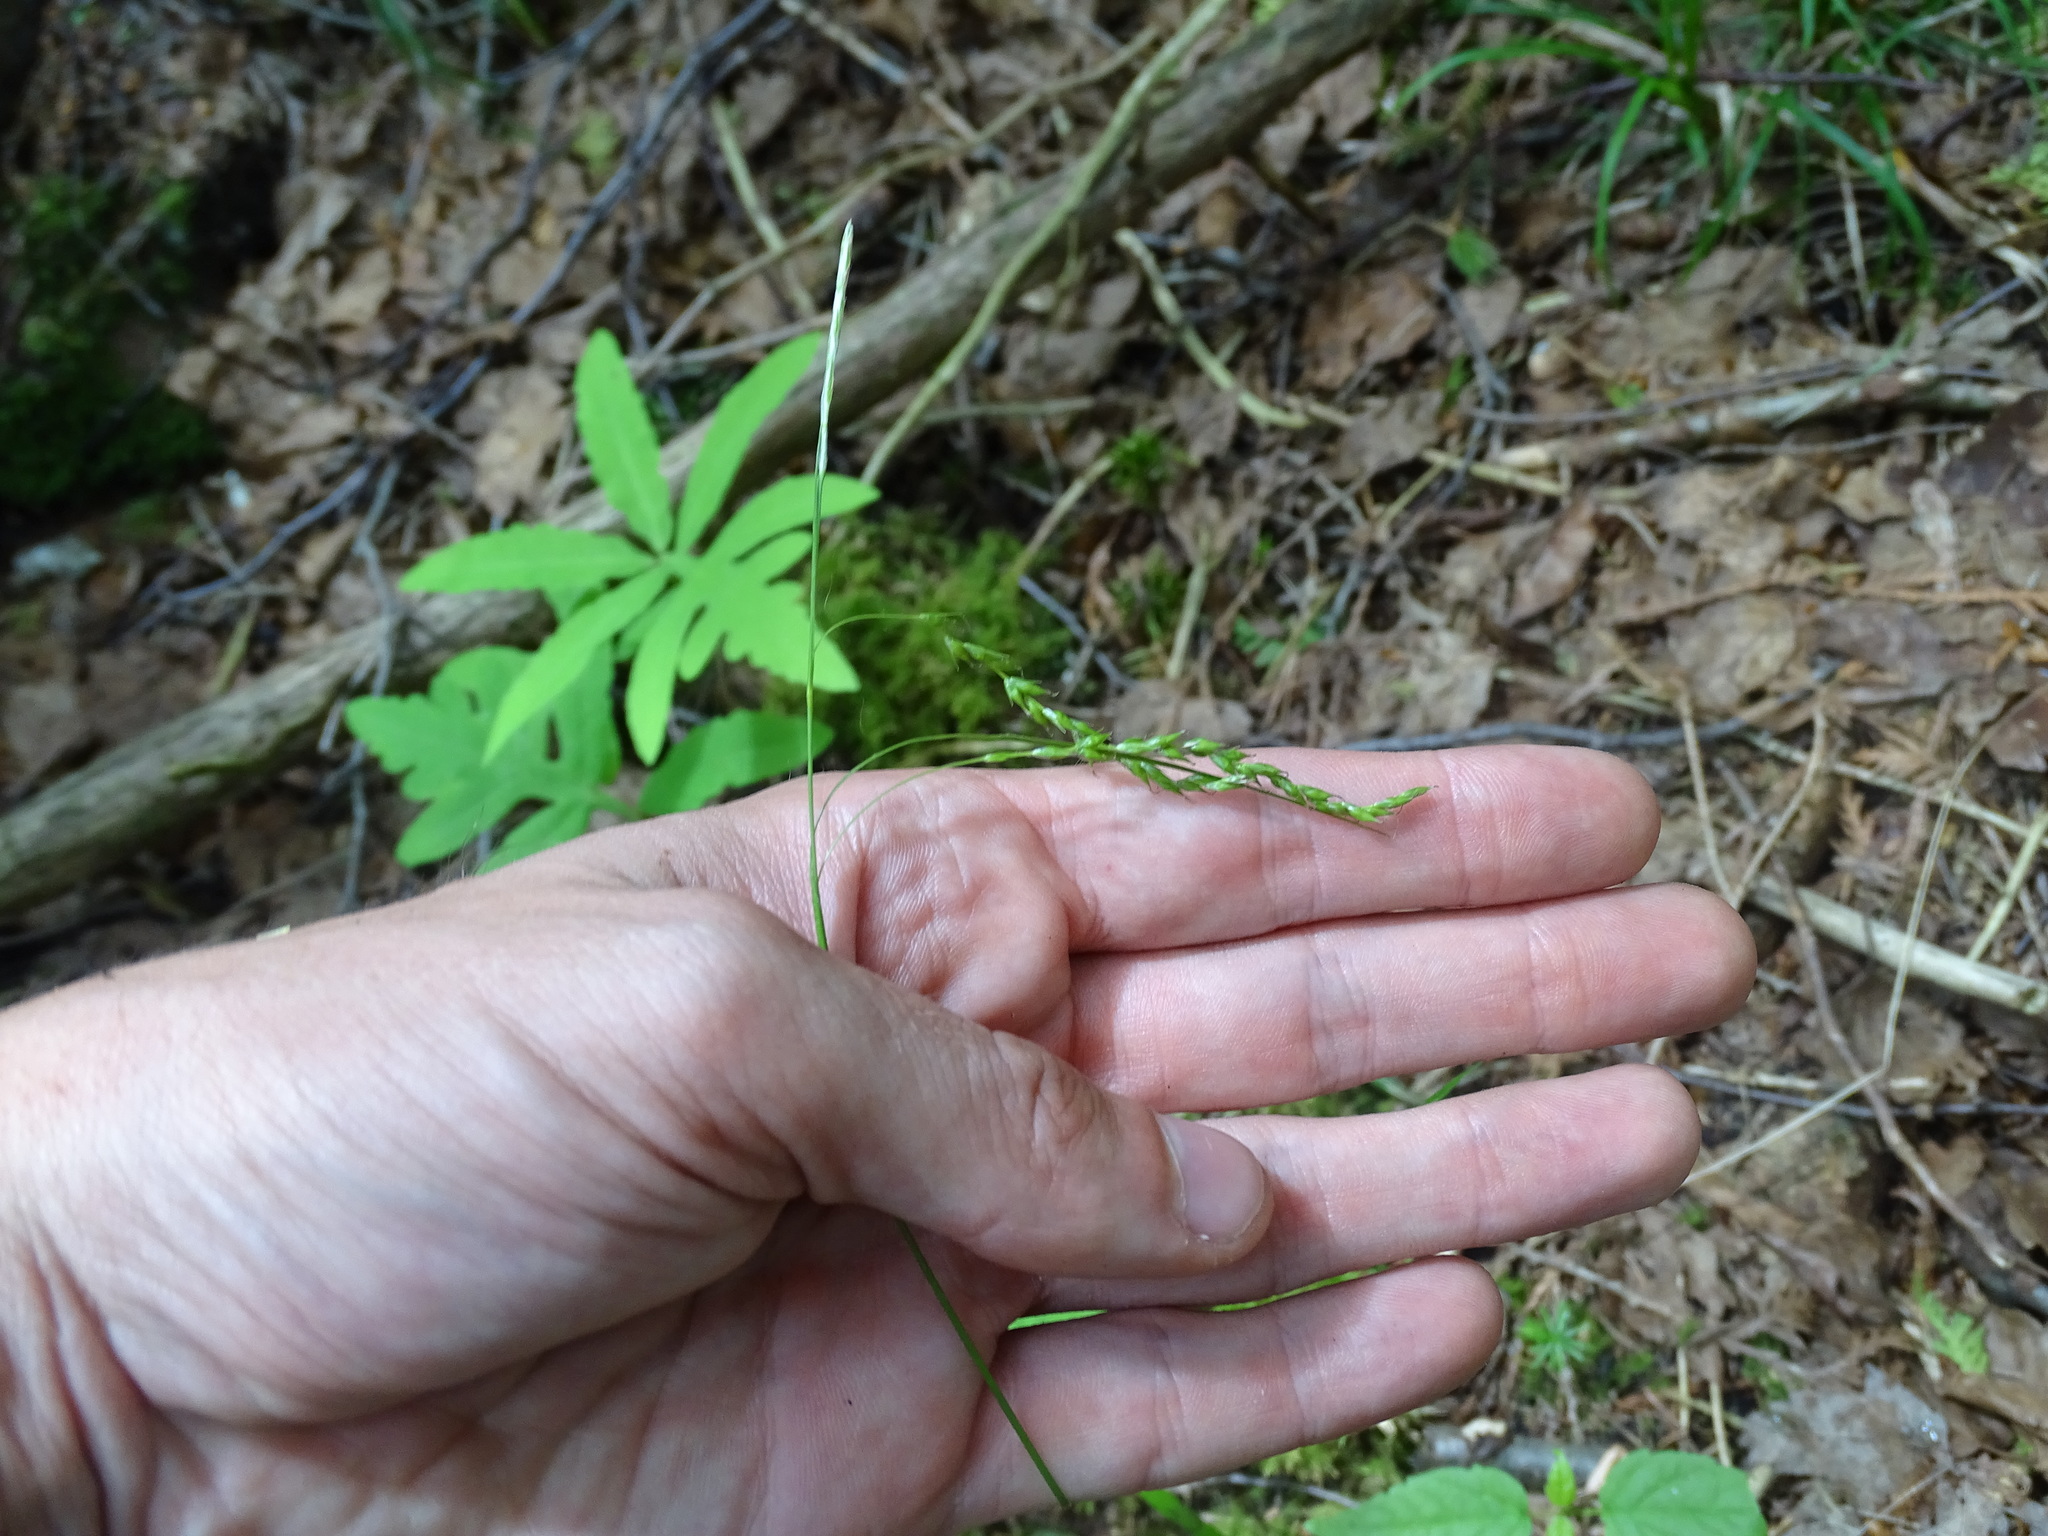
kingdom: Plantae
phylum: Tracheophyta
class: Liliopsida
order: Poales
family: Cyperaceae
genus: Carex
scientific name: Carex arctata
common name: Black sedge
